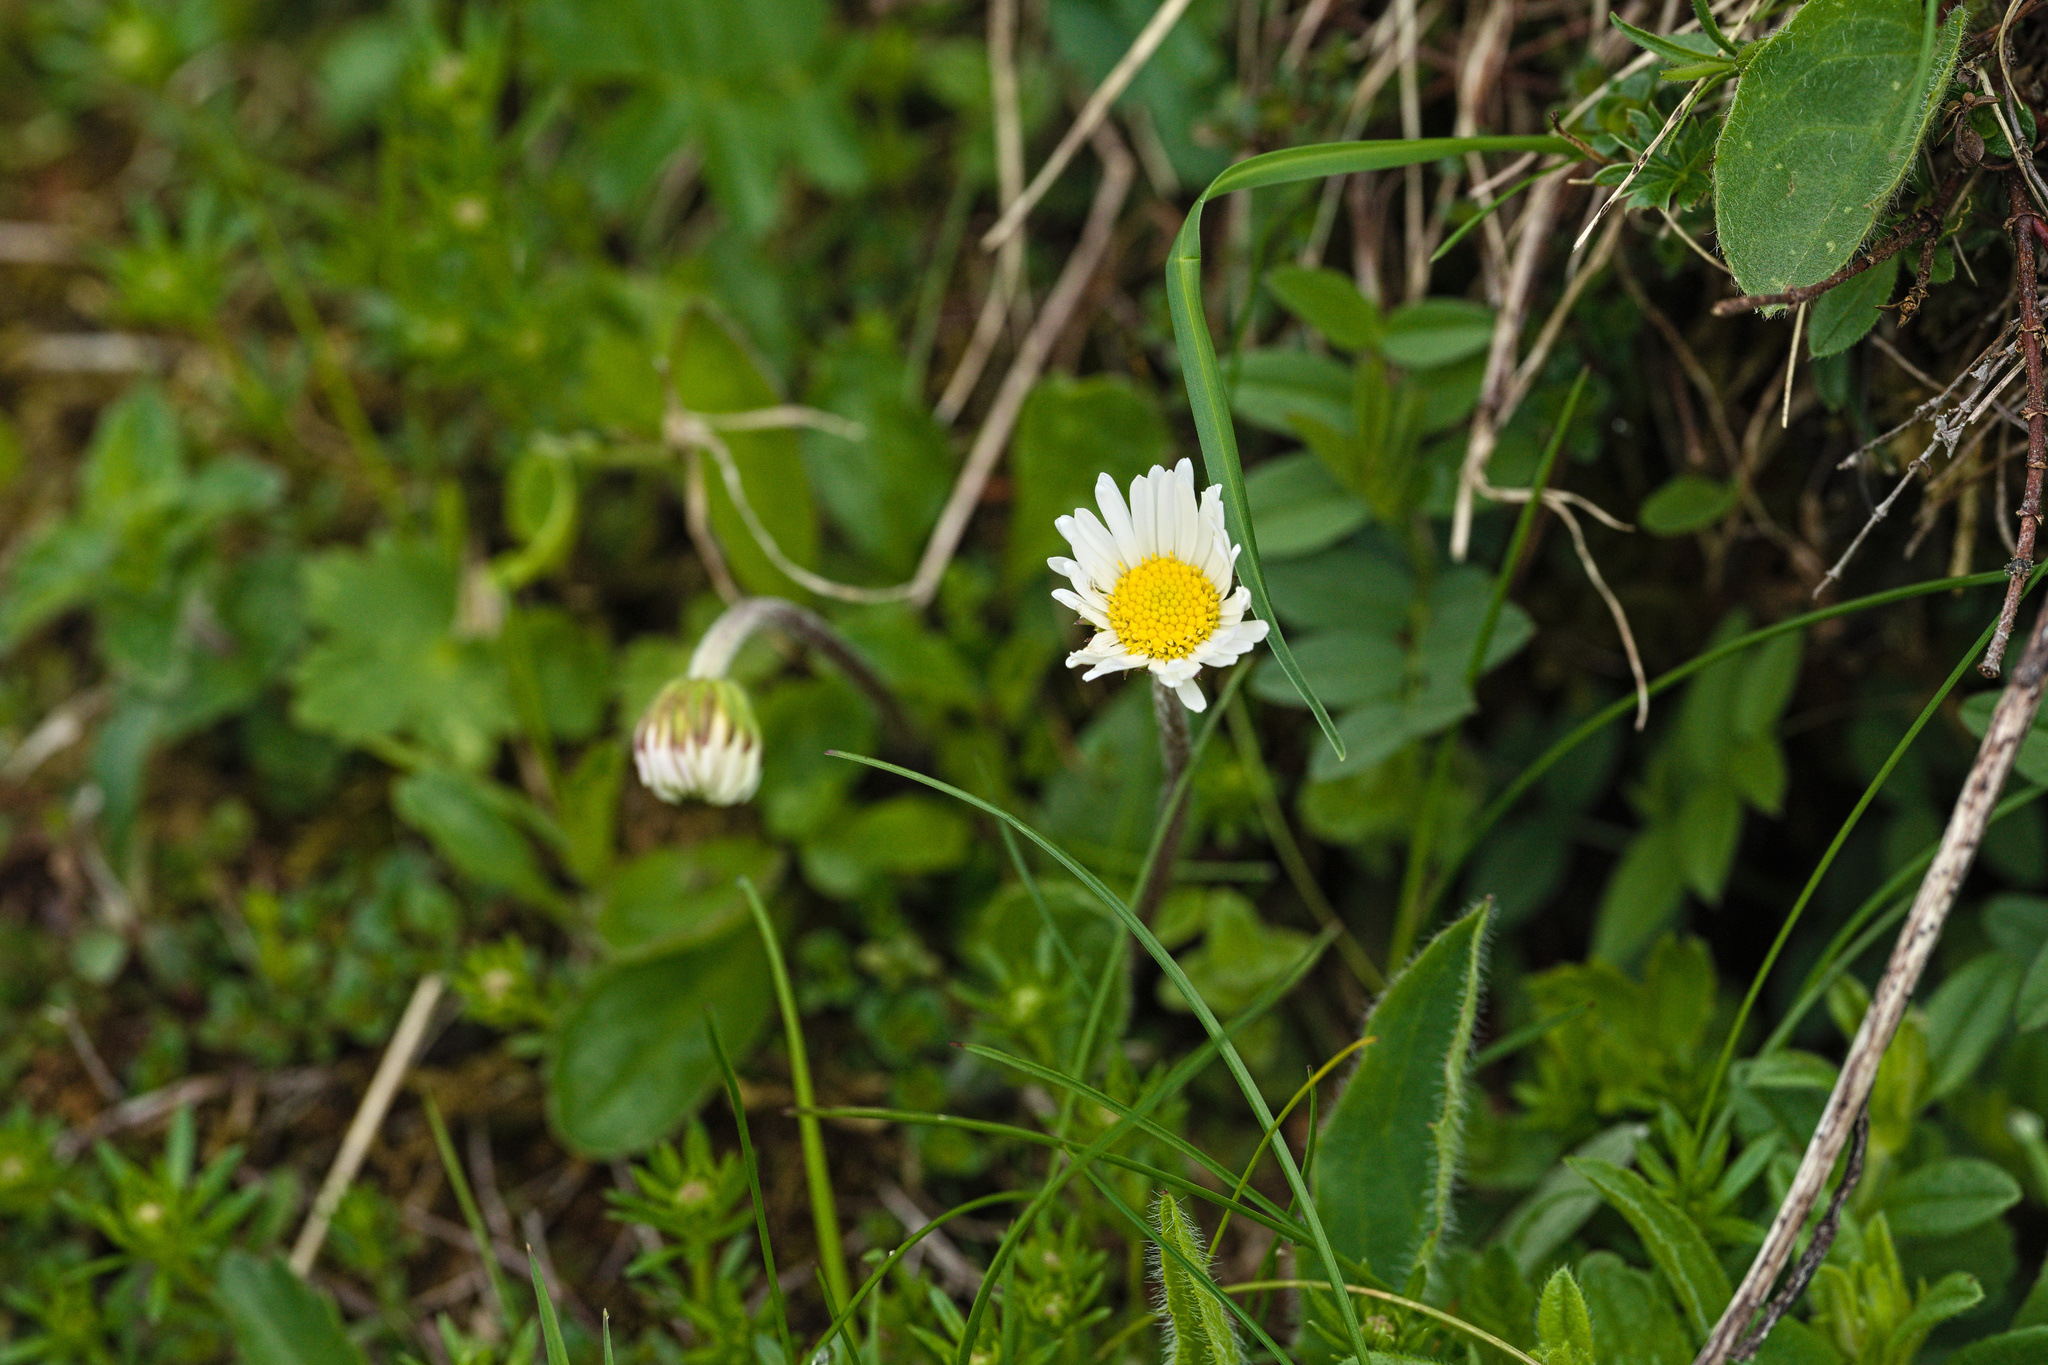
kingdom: Plantae
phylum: Tracheophyta
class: Magnoliopsida
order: Asterales
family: Asteraceae
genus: Bellis
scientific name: Bellis perennis
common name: Lawndaisy
